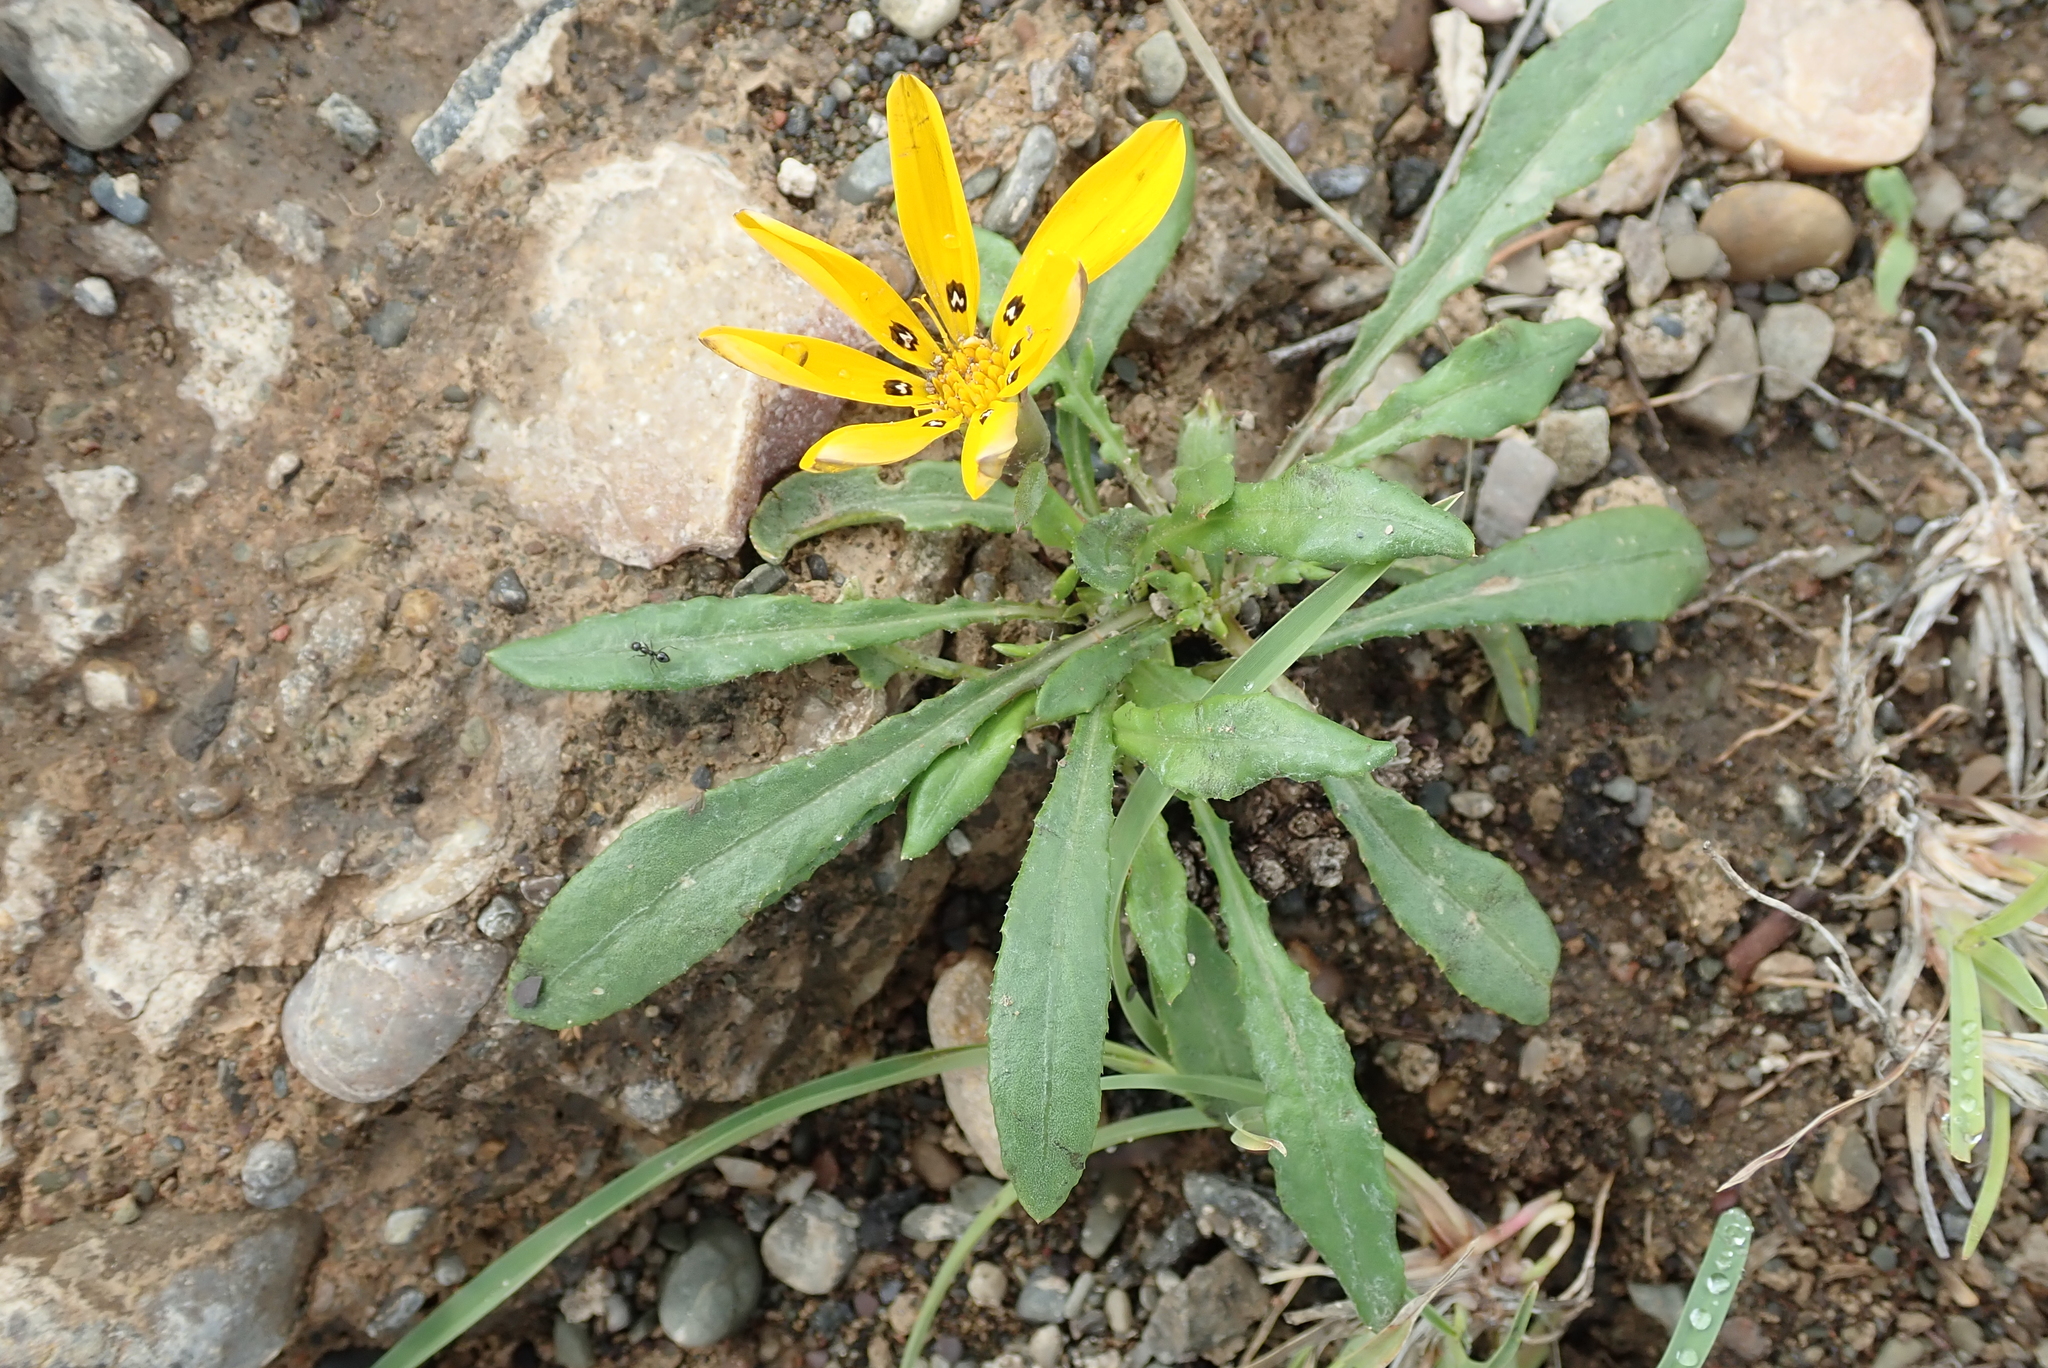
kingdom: Plantae
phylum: Tracheophyta
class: Magnoliopsida
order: Asterales
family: Asteraceae
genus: Gazania
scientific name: Gazania lichtensteinii
